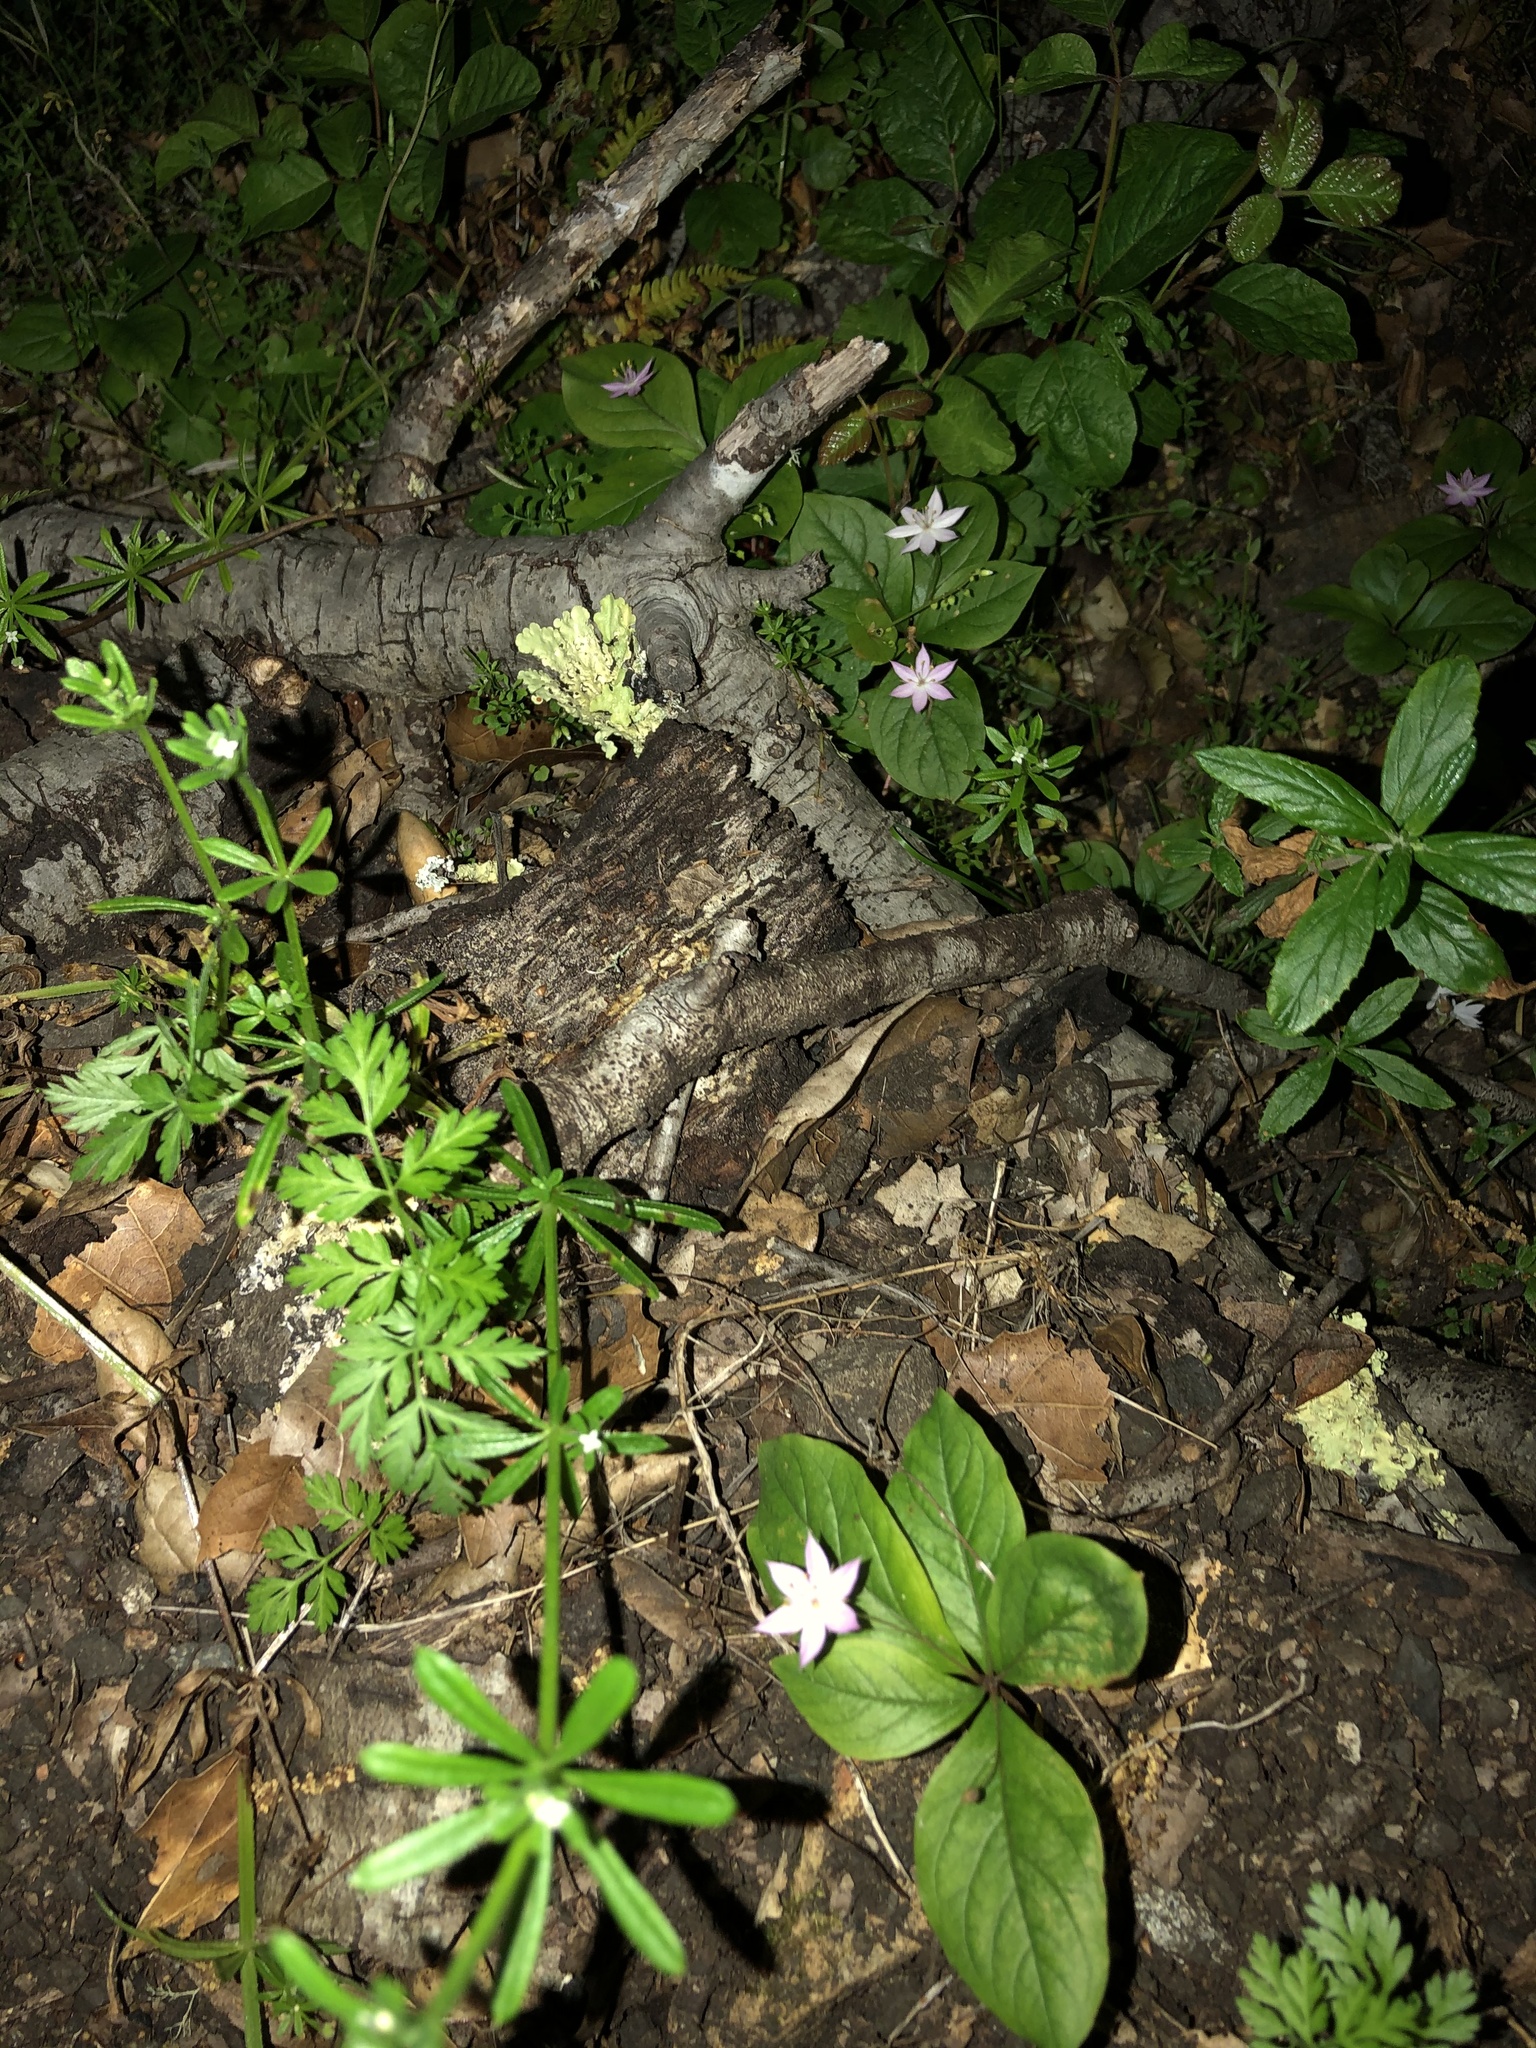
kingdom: Plantae
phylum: Tracheophyta
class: Magnoliopsida
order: Ericales
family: Primulaceae
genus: Lysimachia
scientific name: Lysimachia latifolia
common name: Pacific starflower
